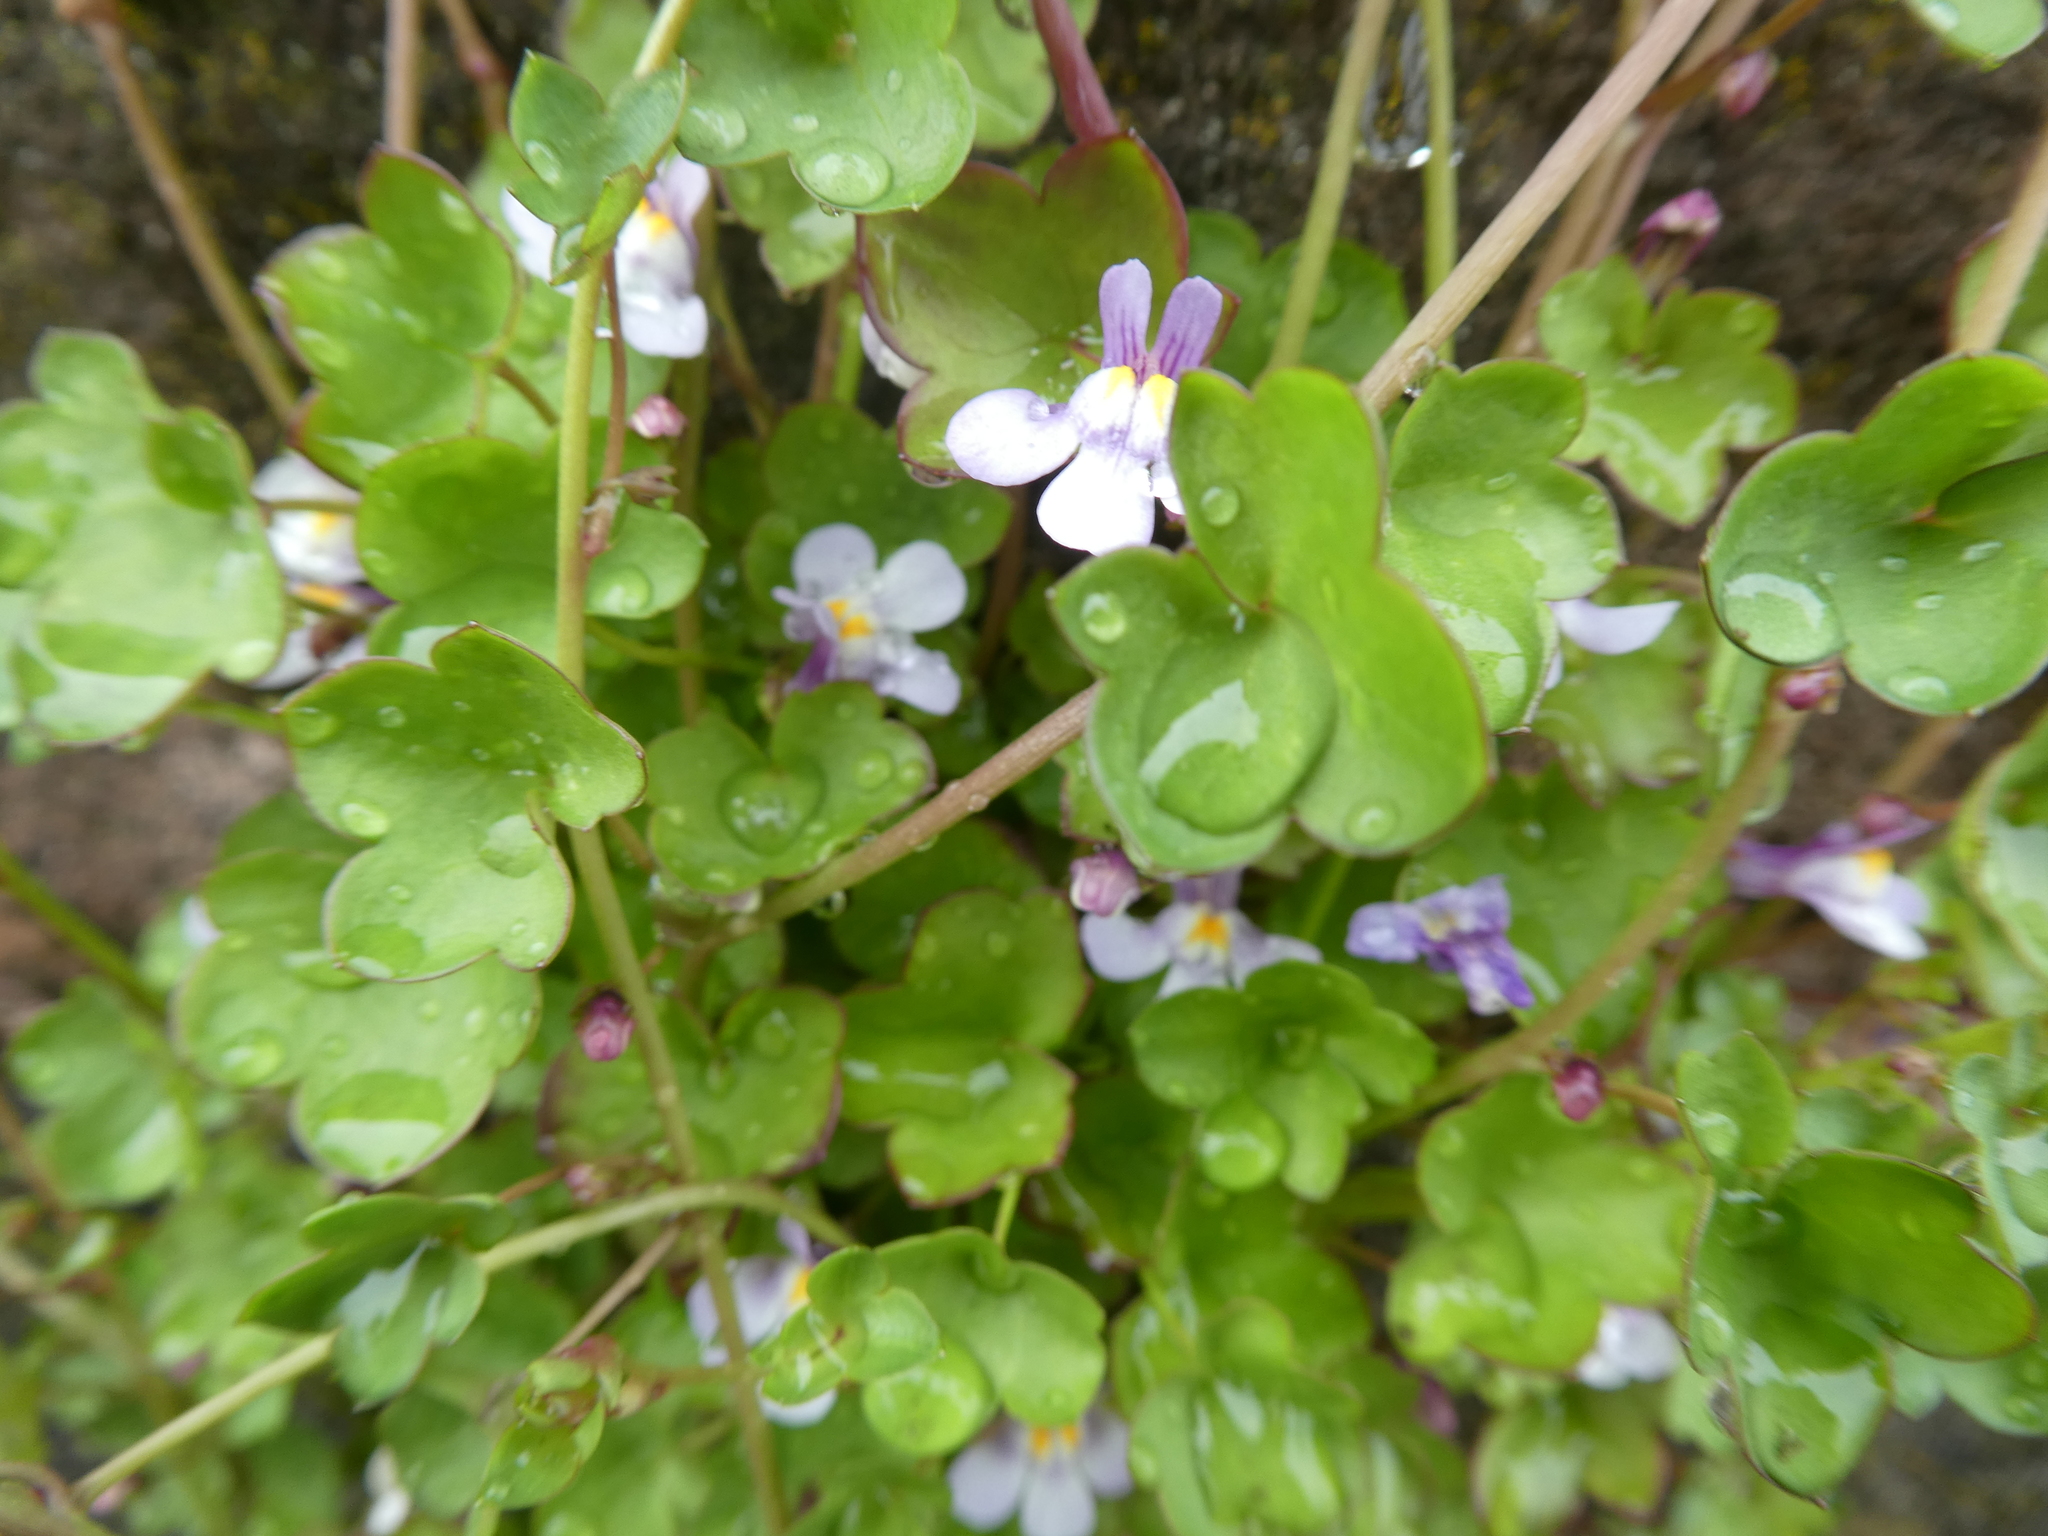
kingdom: Plantae
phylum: Tracheophyta
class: Magnoliopsida
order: Lamiales
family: Plantaginaceae
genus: Cymbalaria
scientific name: Cymbalaria muralis
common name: Ivy-leaved toadflax
